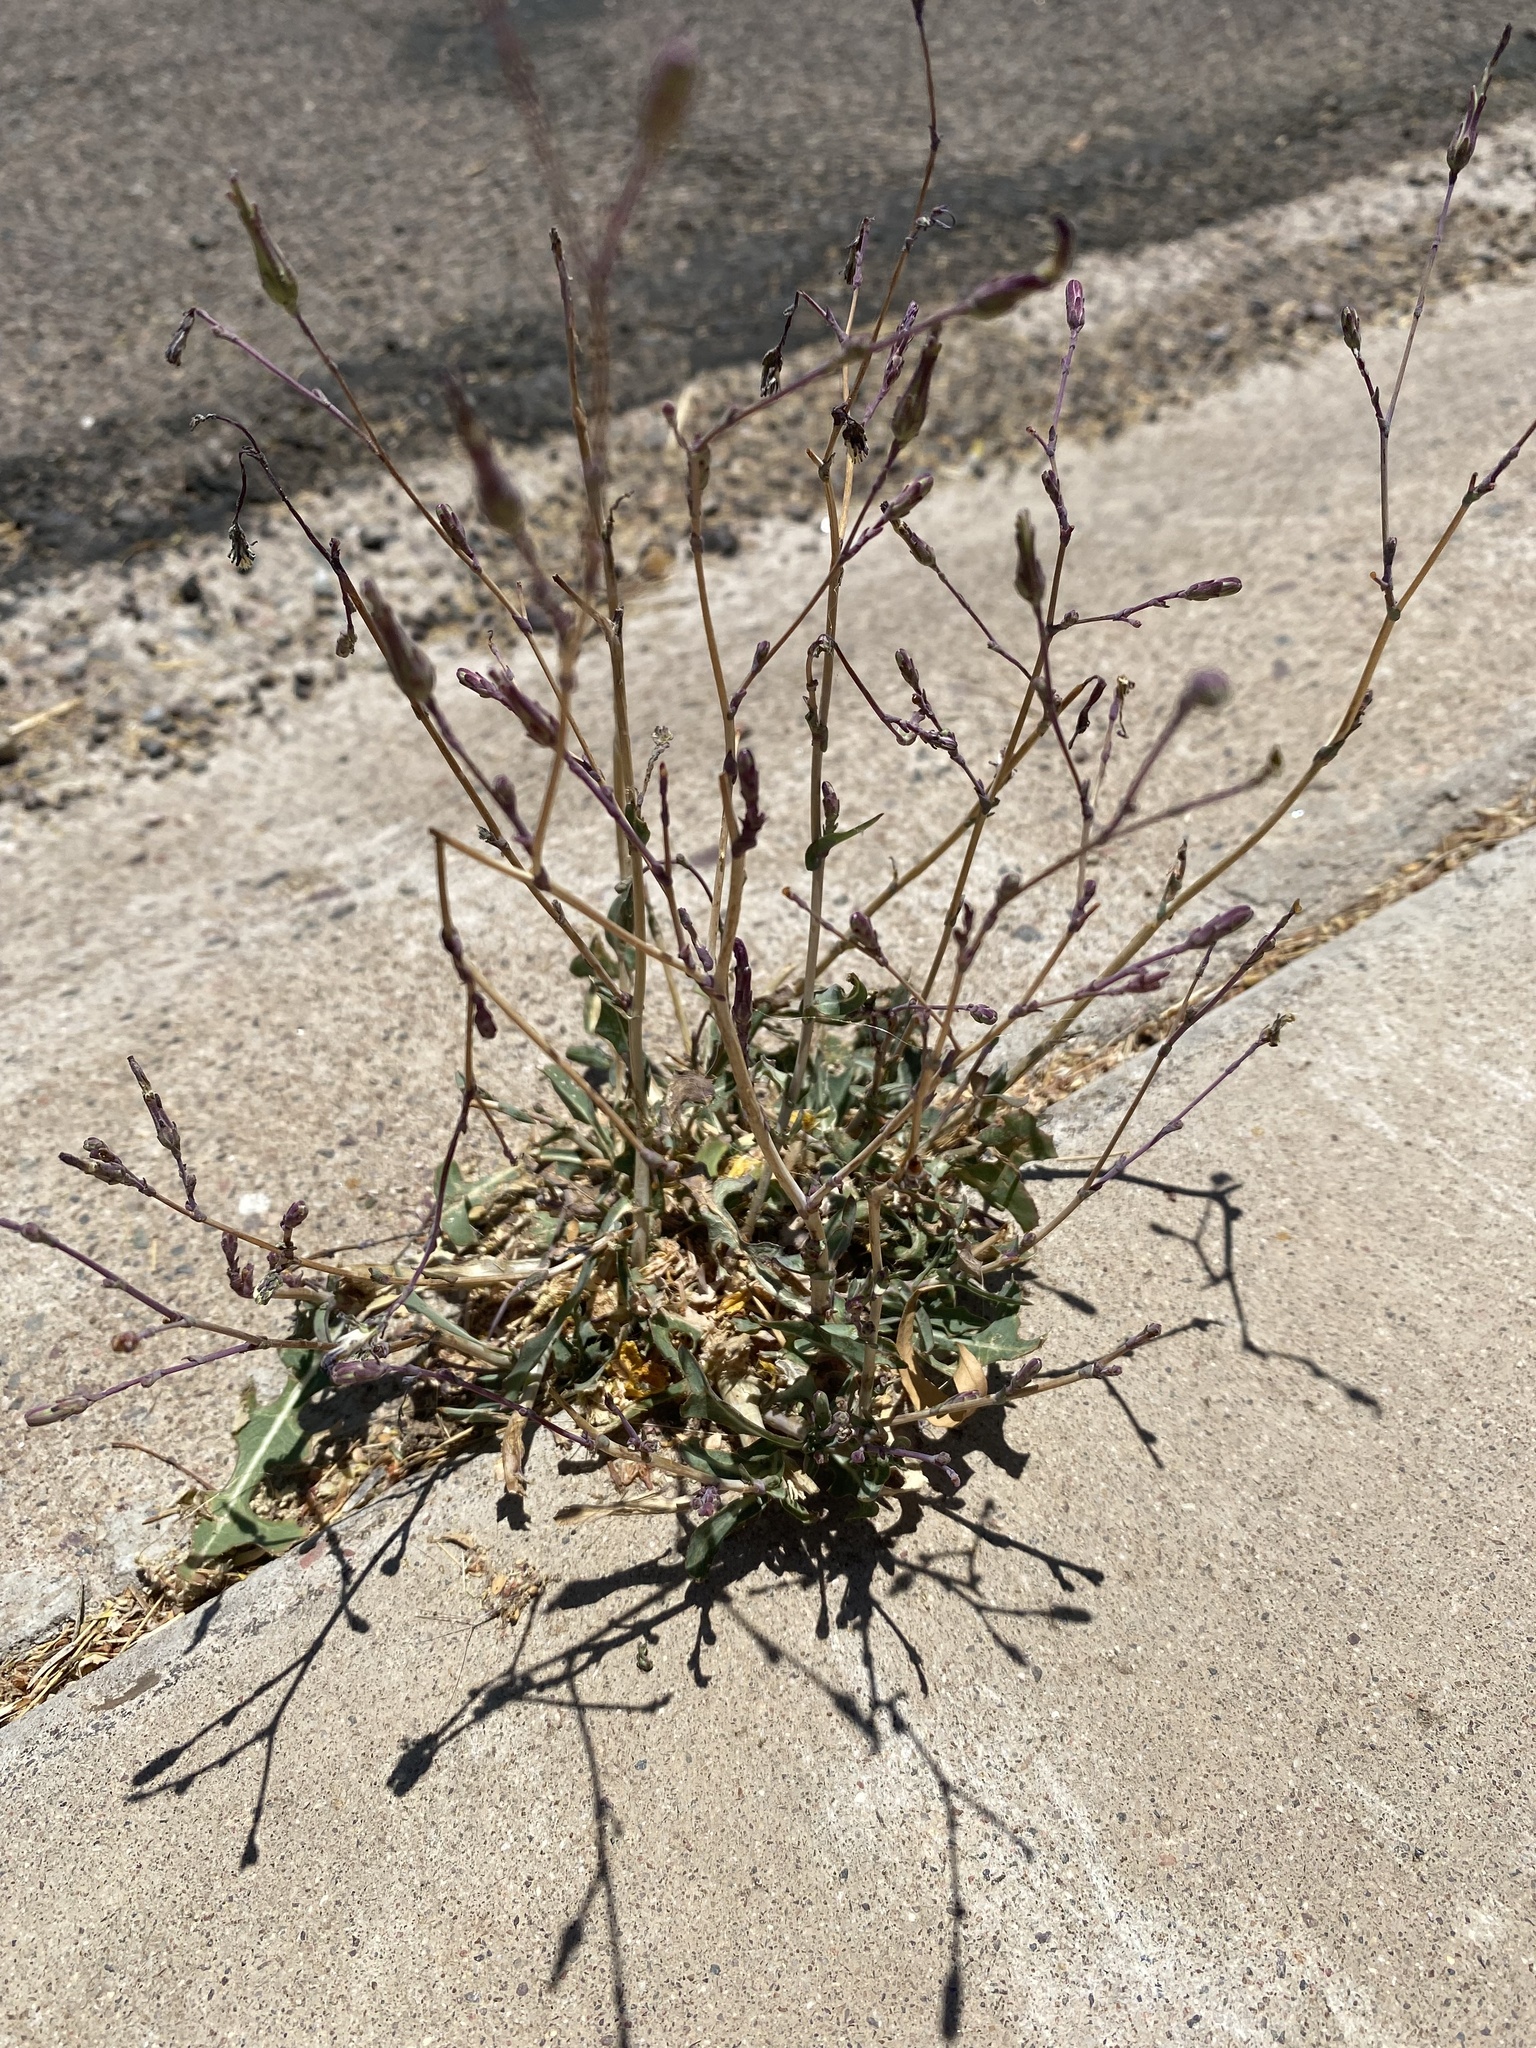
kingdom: Plantae
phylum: Tracheophyta
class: Magnoliopsida
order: Asterales
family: Asteraceae
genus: Lactuca
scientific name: Lactuca serriola
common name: Prickly lettuce
